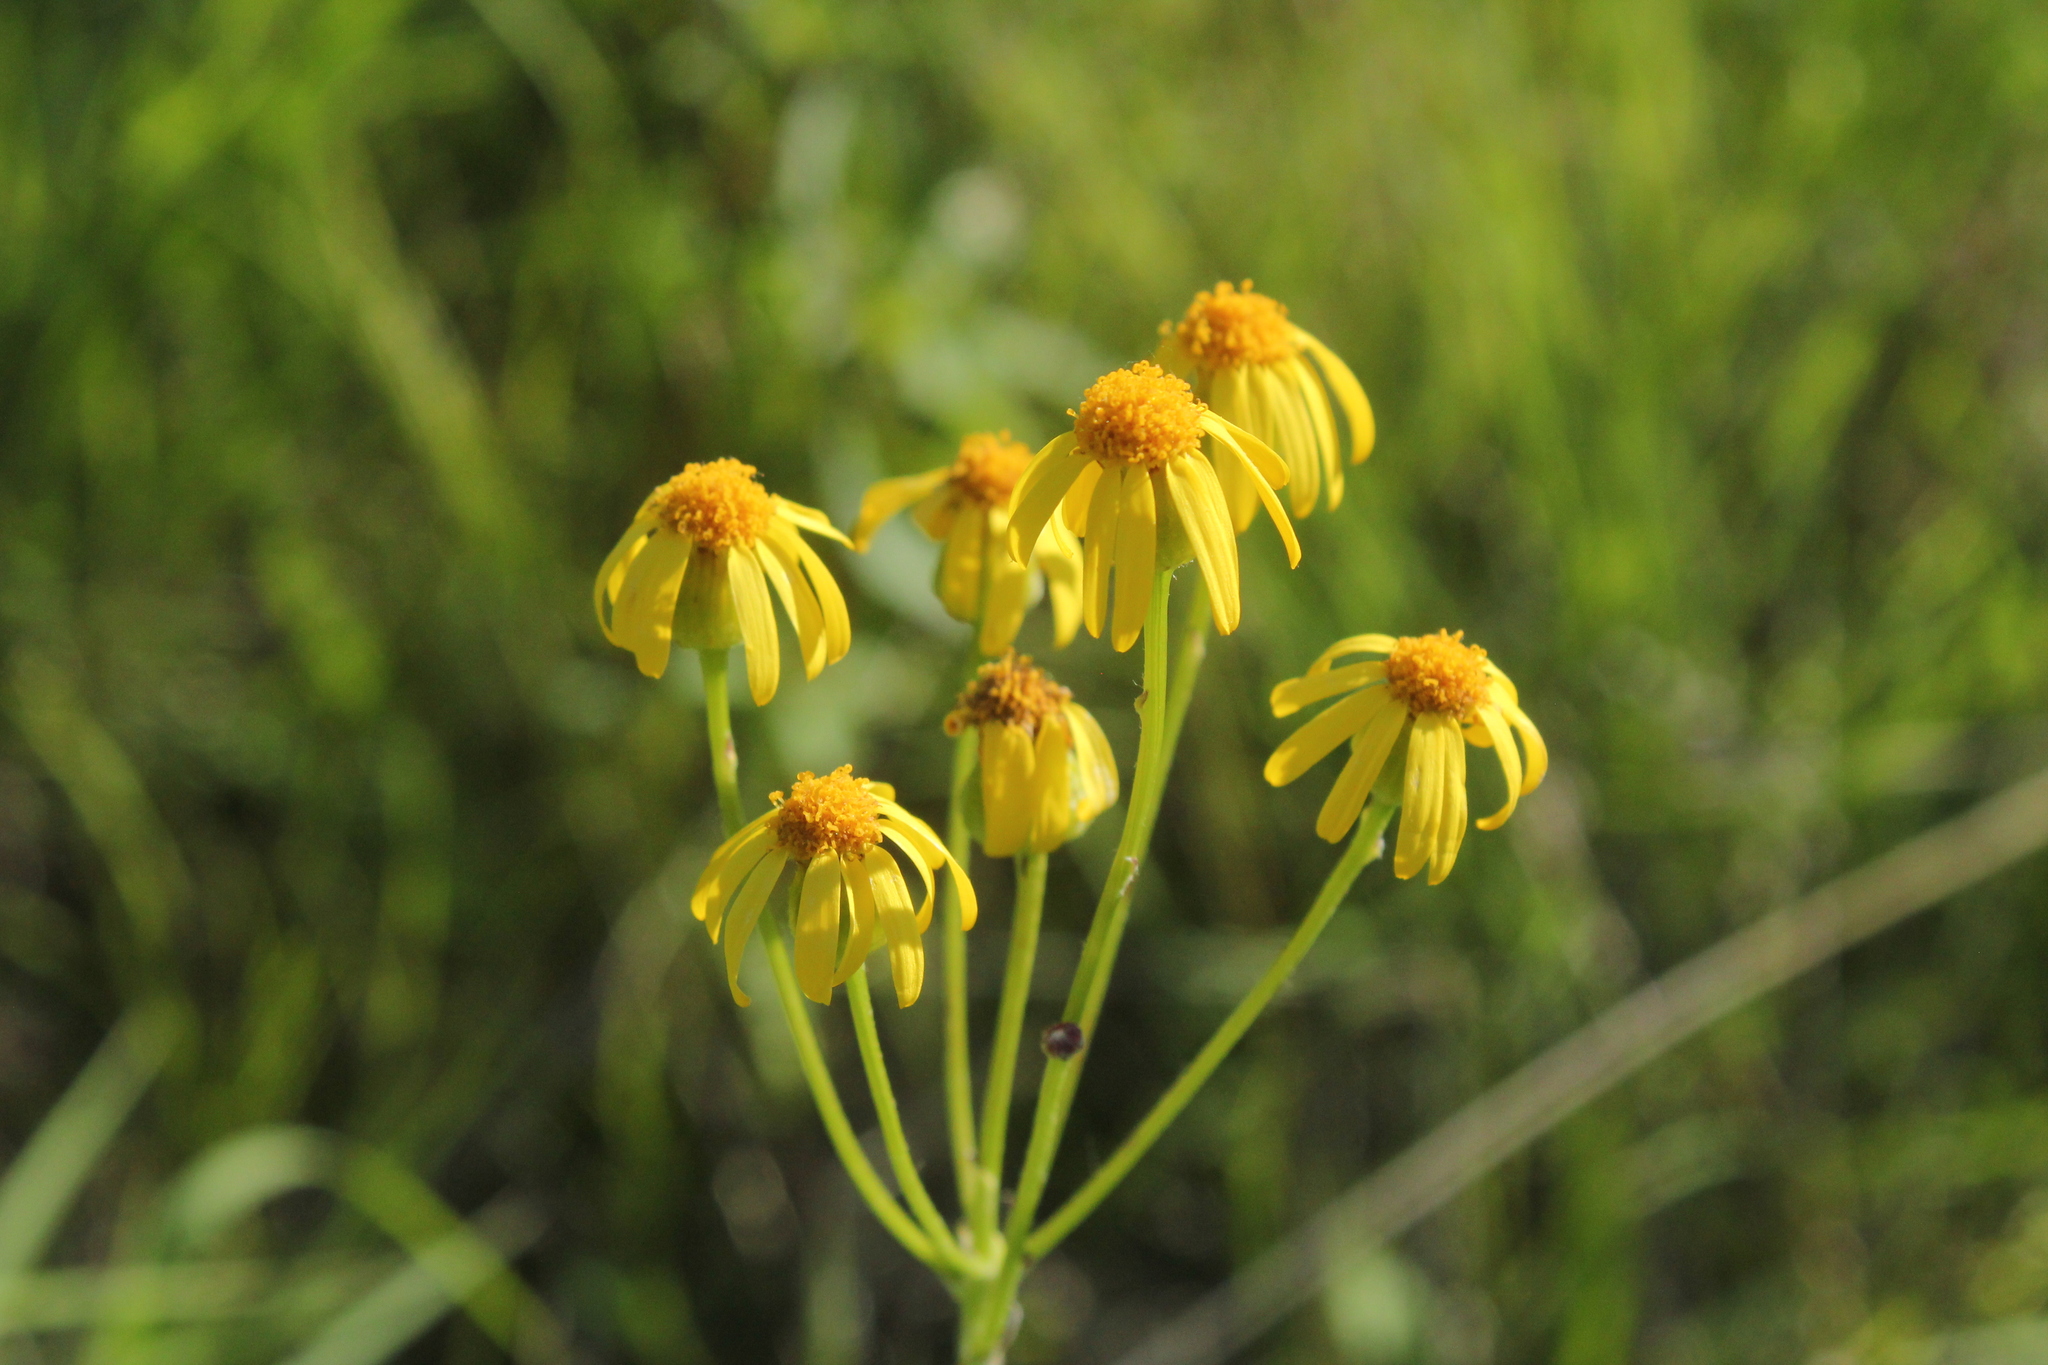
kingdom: Plantae
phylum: Tracheophyta
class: Magnoliopsida
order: Asterales
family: Asteraceae
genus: Packera
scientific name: Packera paupercula
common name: Balsam groundsel
